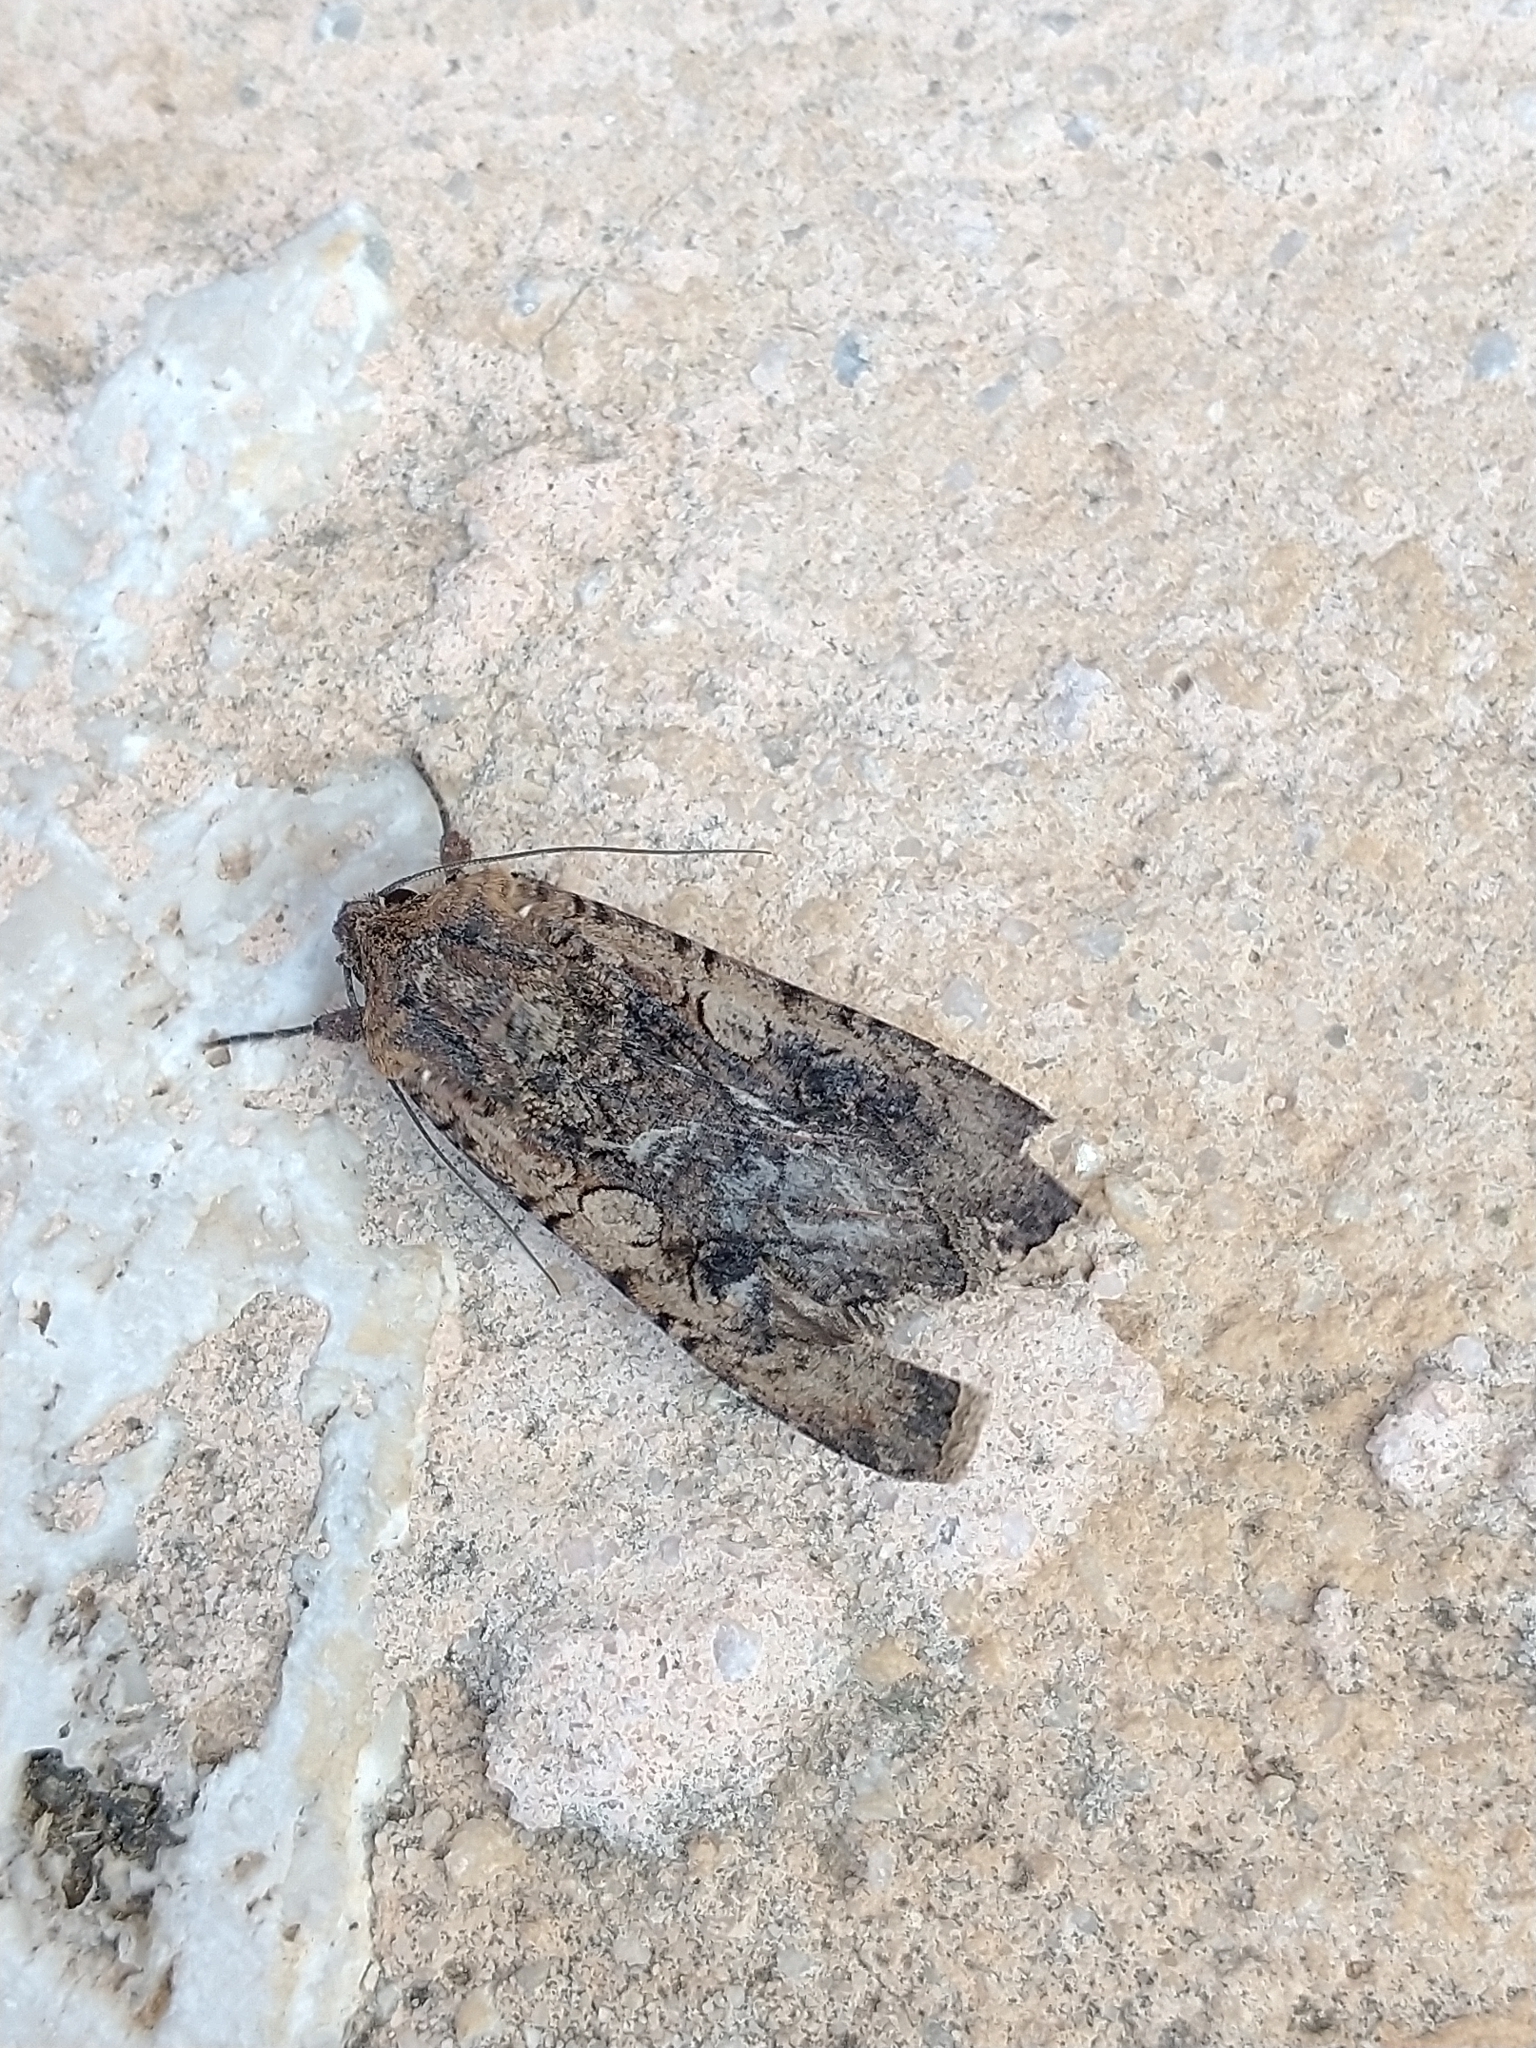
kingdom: Animalia
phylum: Arthropoda
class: Insecta
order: Lepidoptera
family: Noctuidae
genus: Peridroma
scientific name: Peridroma saucia
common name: Pearly underwing
